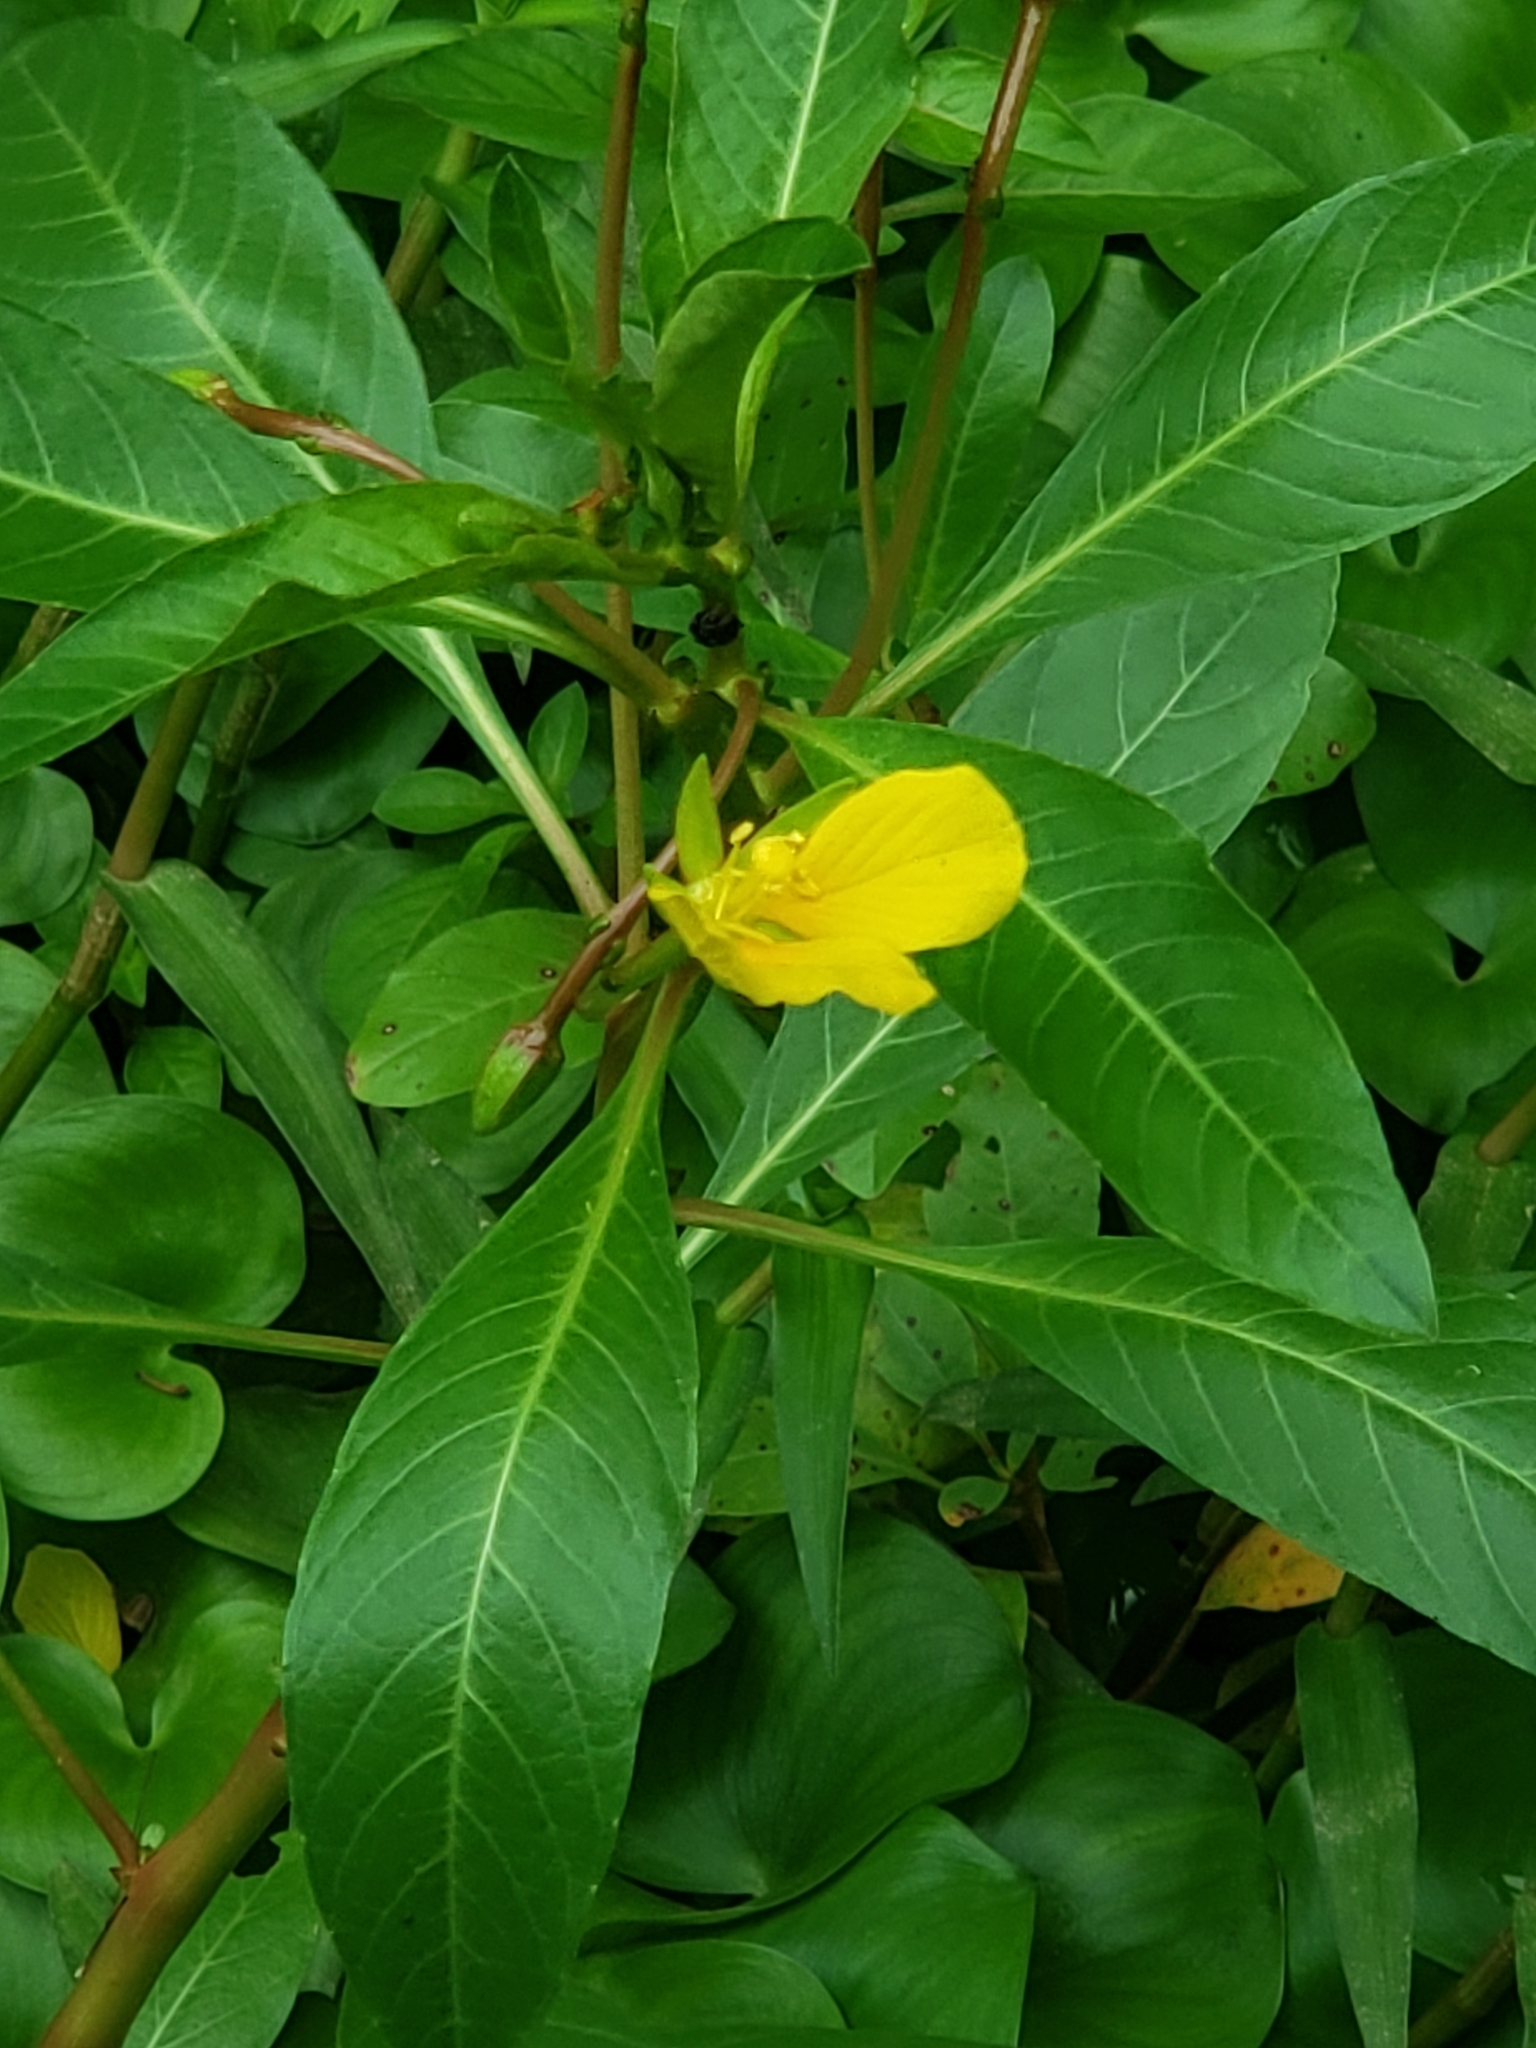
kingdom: Plantae
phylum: Tracheophyta
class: Magnoliopsida
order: Myrtales
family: Onagraceae
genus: Ludwigia
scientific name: Ludwigia hexapetala
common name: Water-primrose
